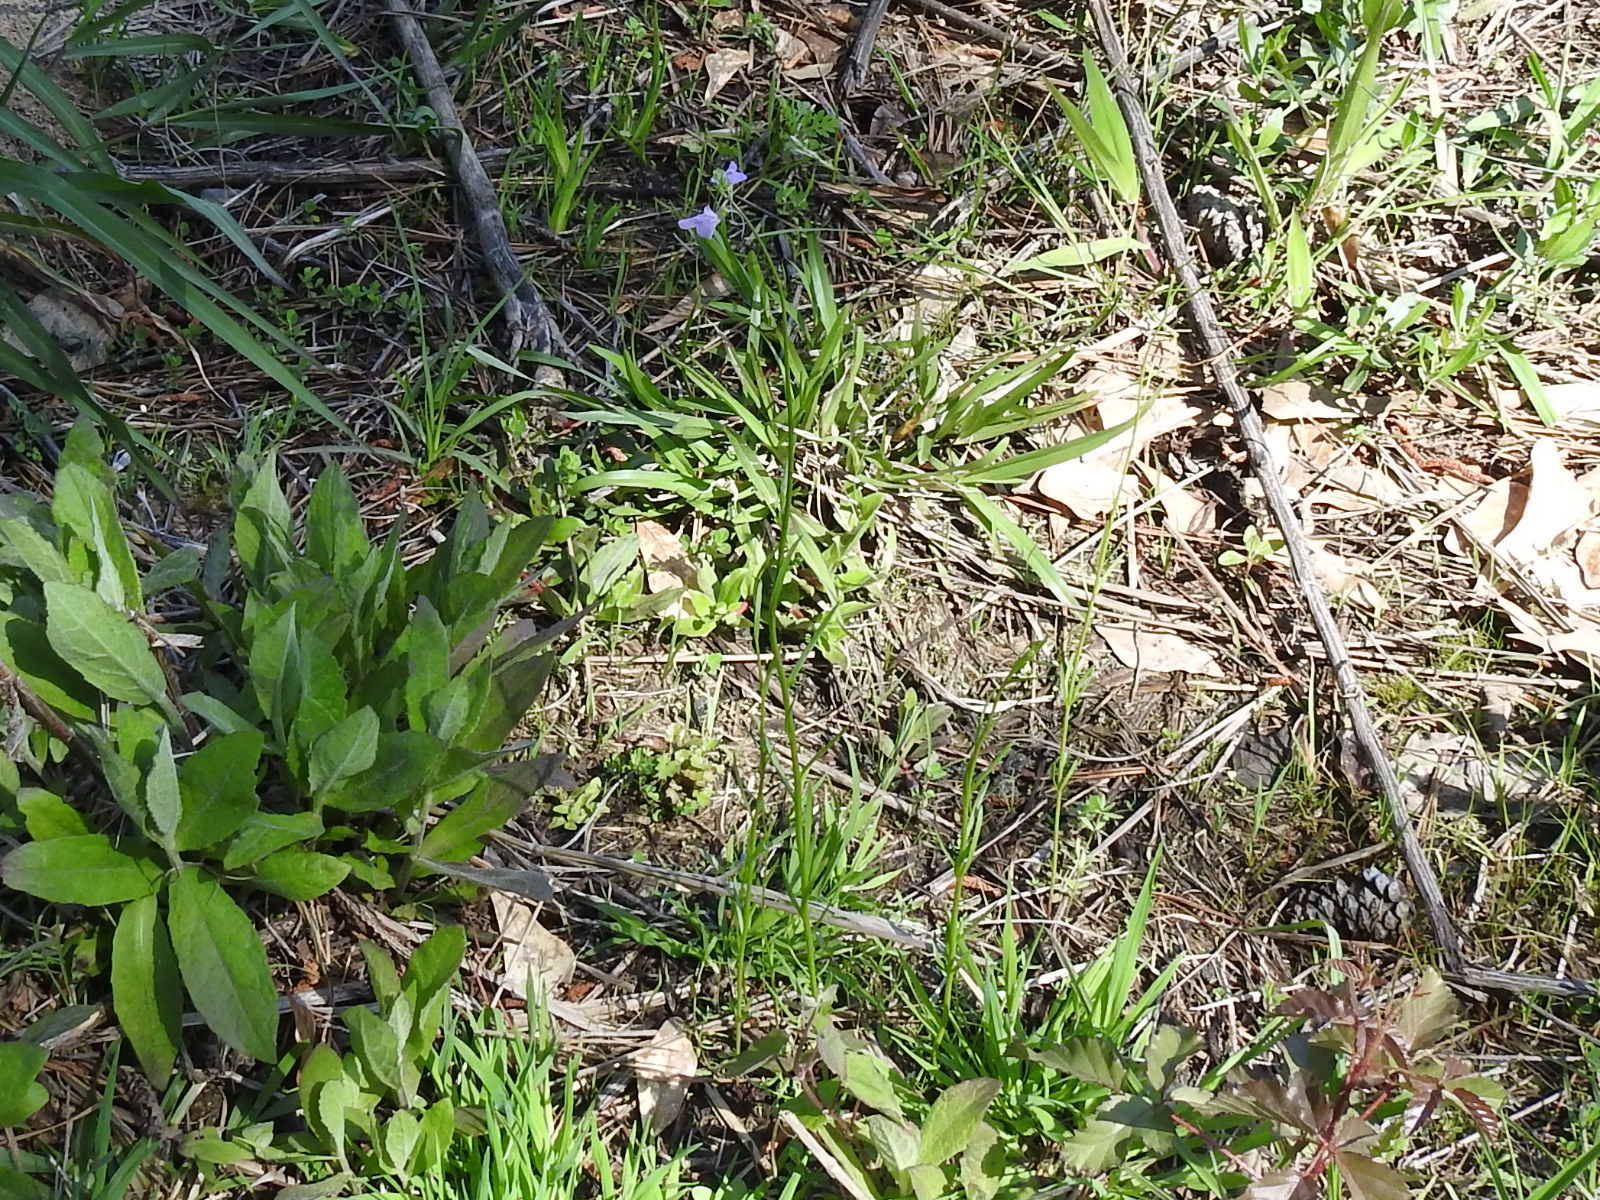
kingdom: Plantae
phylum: Tracheophyta
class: Magnoliopsida
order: Lamiales
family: Plantaginaceae
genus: Nuttallanthus
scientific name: Nuttallanthus texanus
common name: Texas toadflax
